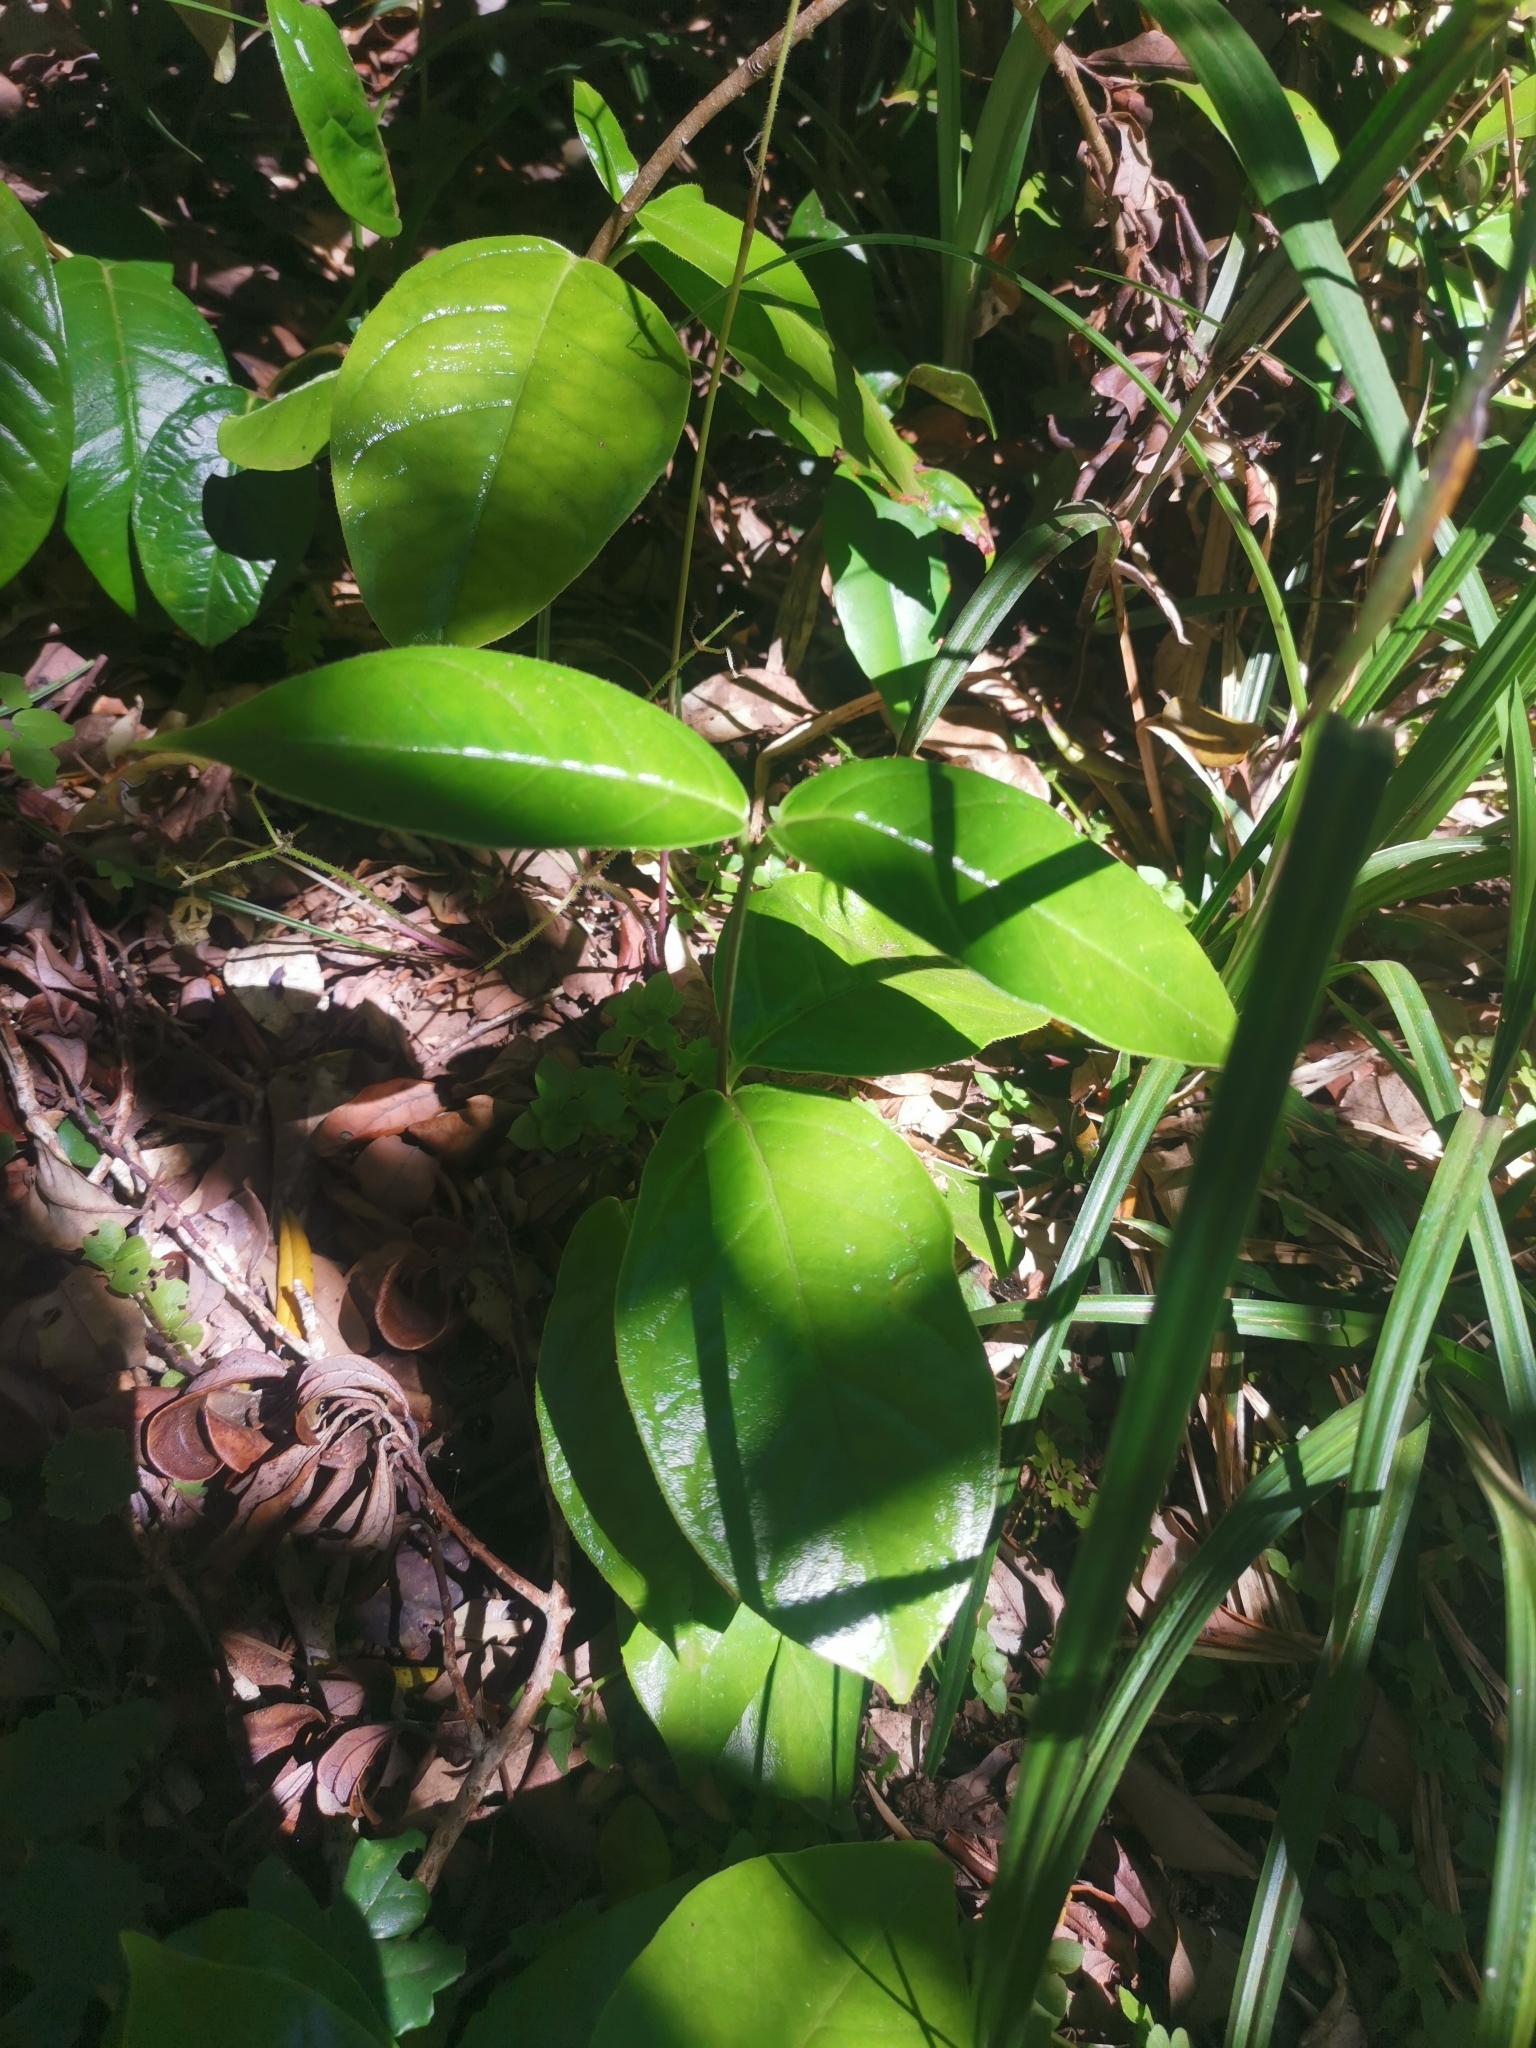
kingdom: Plantae
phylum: Tracheophyta
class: Magnoliopsida
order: Gentianales
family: Apocynaceae
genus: Mandevilla
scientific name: Mandevilla pubescens
